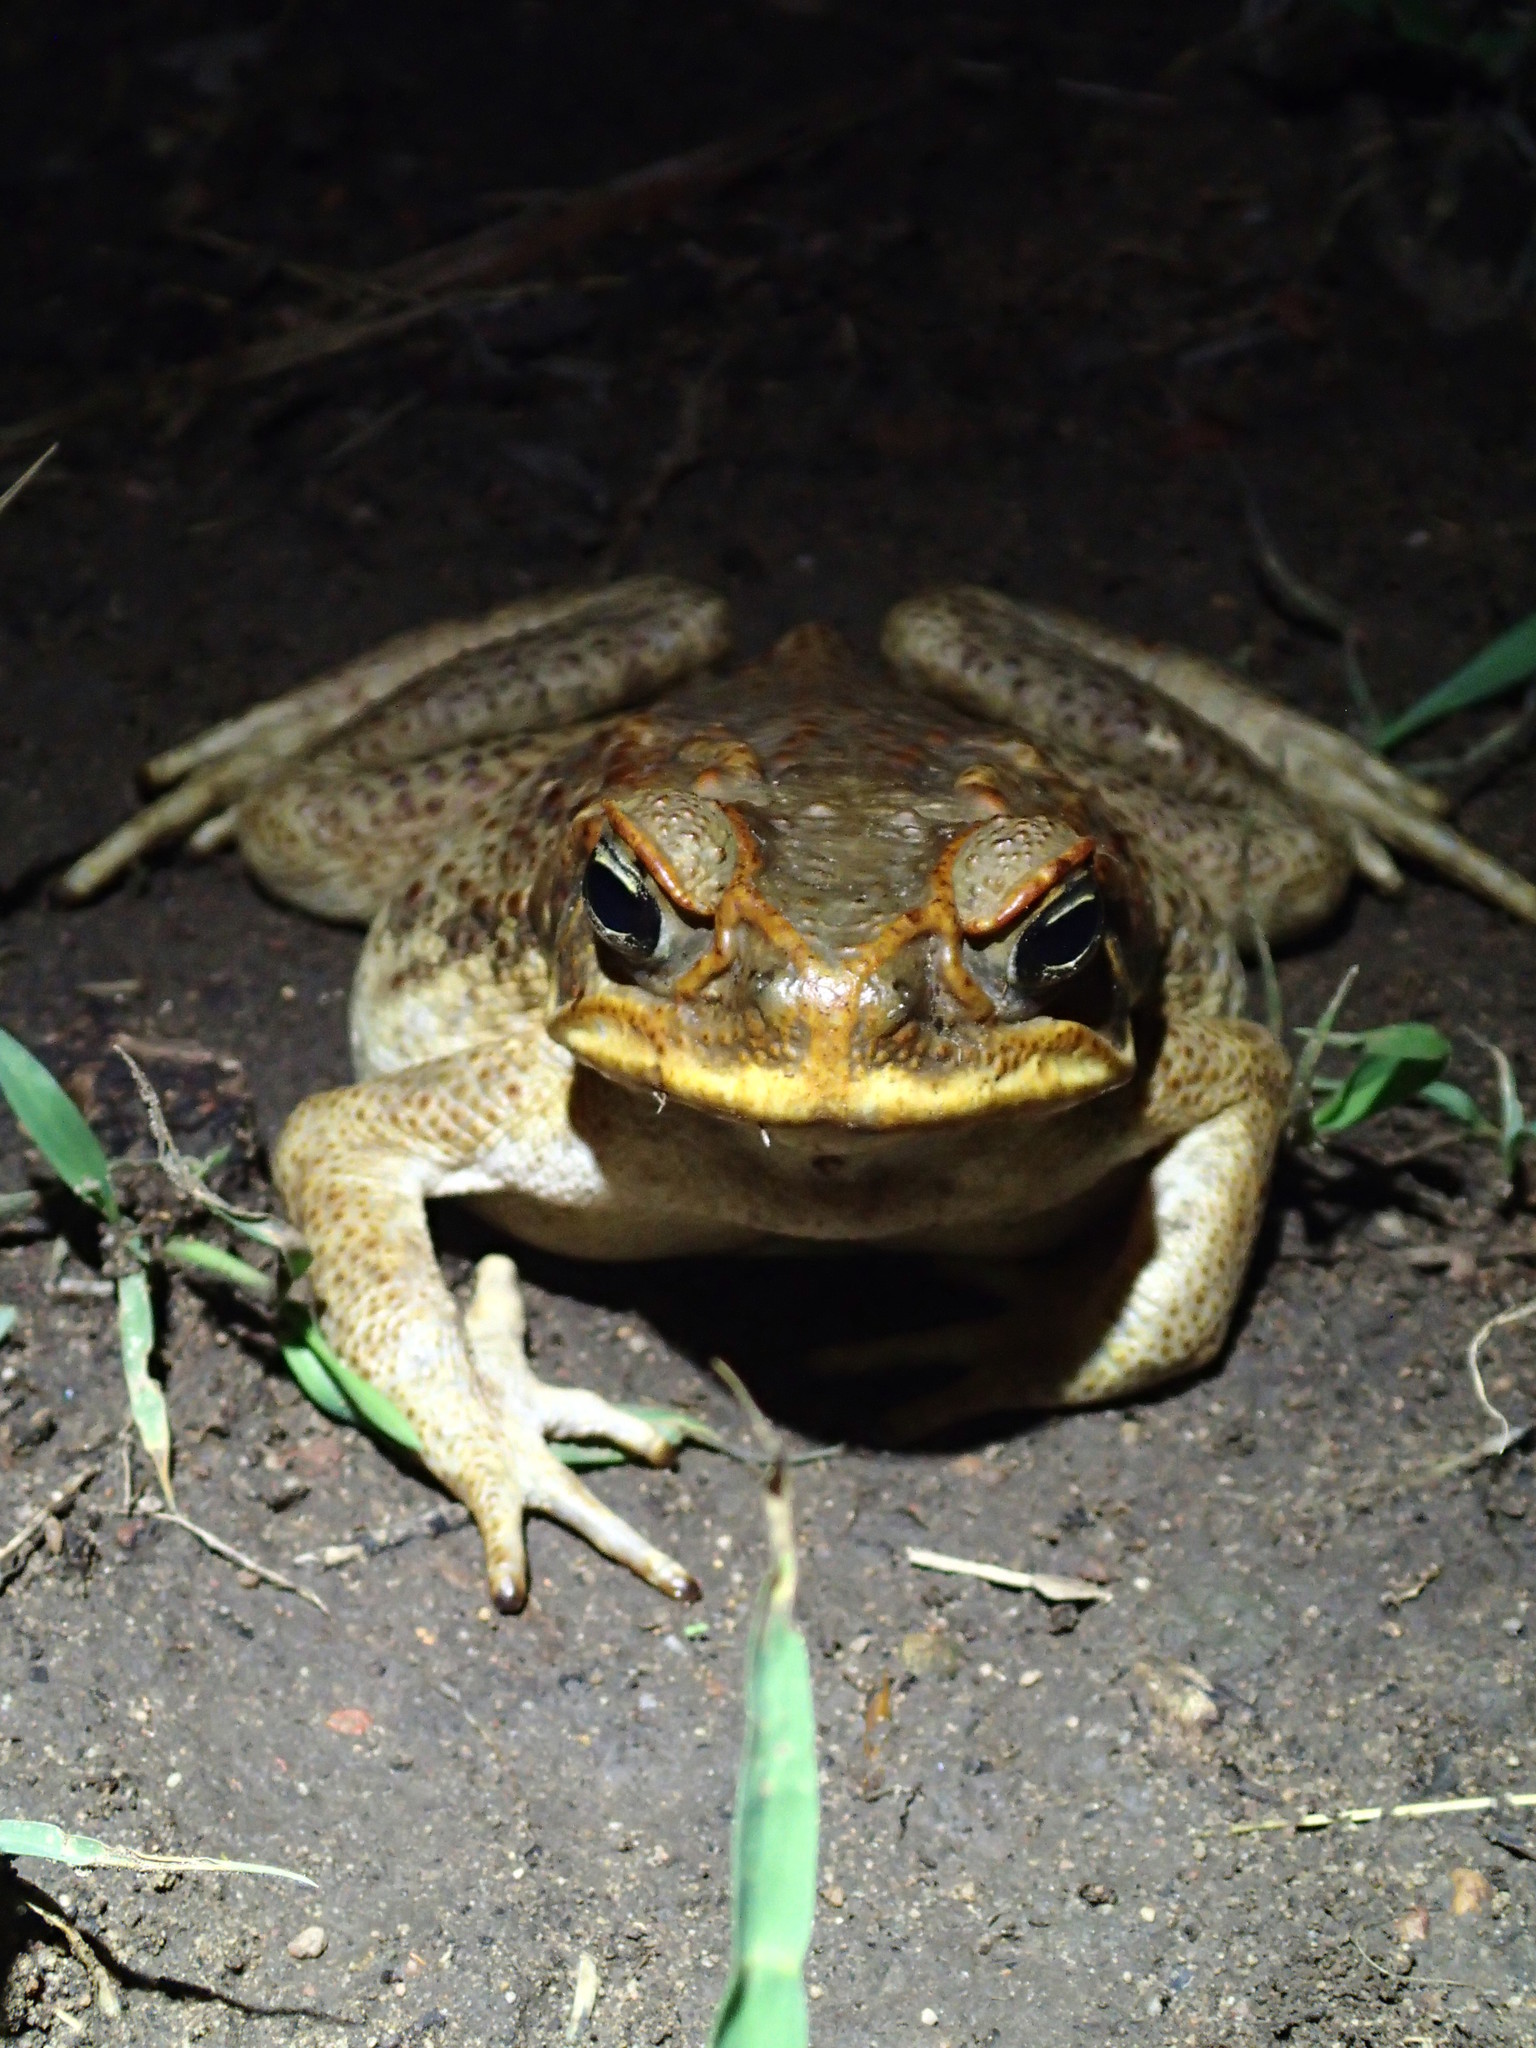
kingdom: Animalia
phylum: Chordata
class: Amphibia
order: Anura
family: Bufonidae
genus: Rhinella
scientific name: Rhinella marina
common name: Cane toad
